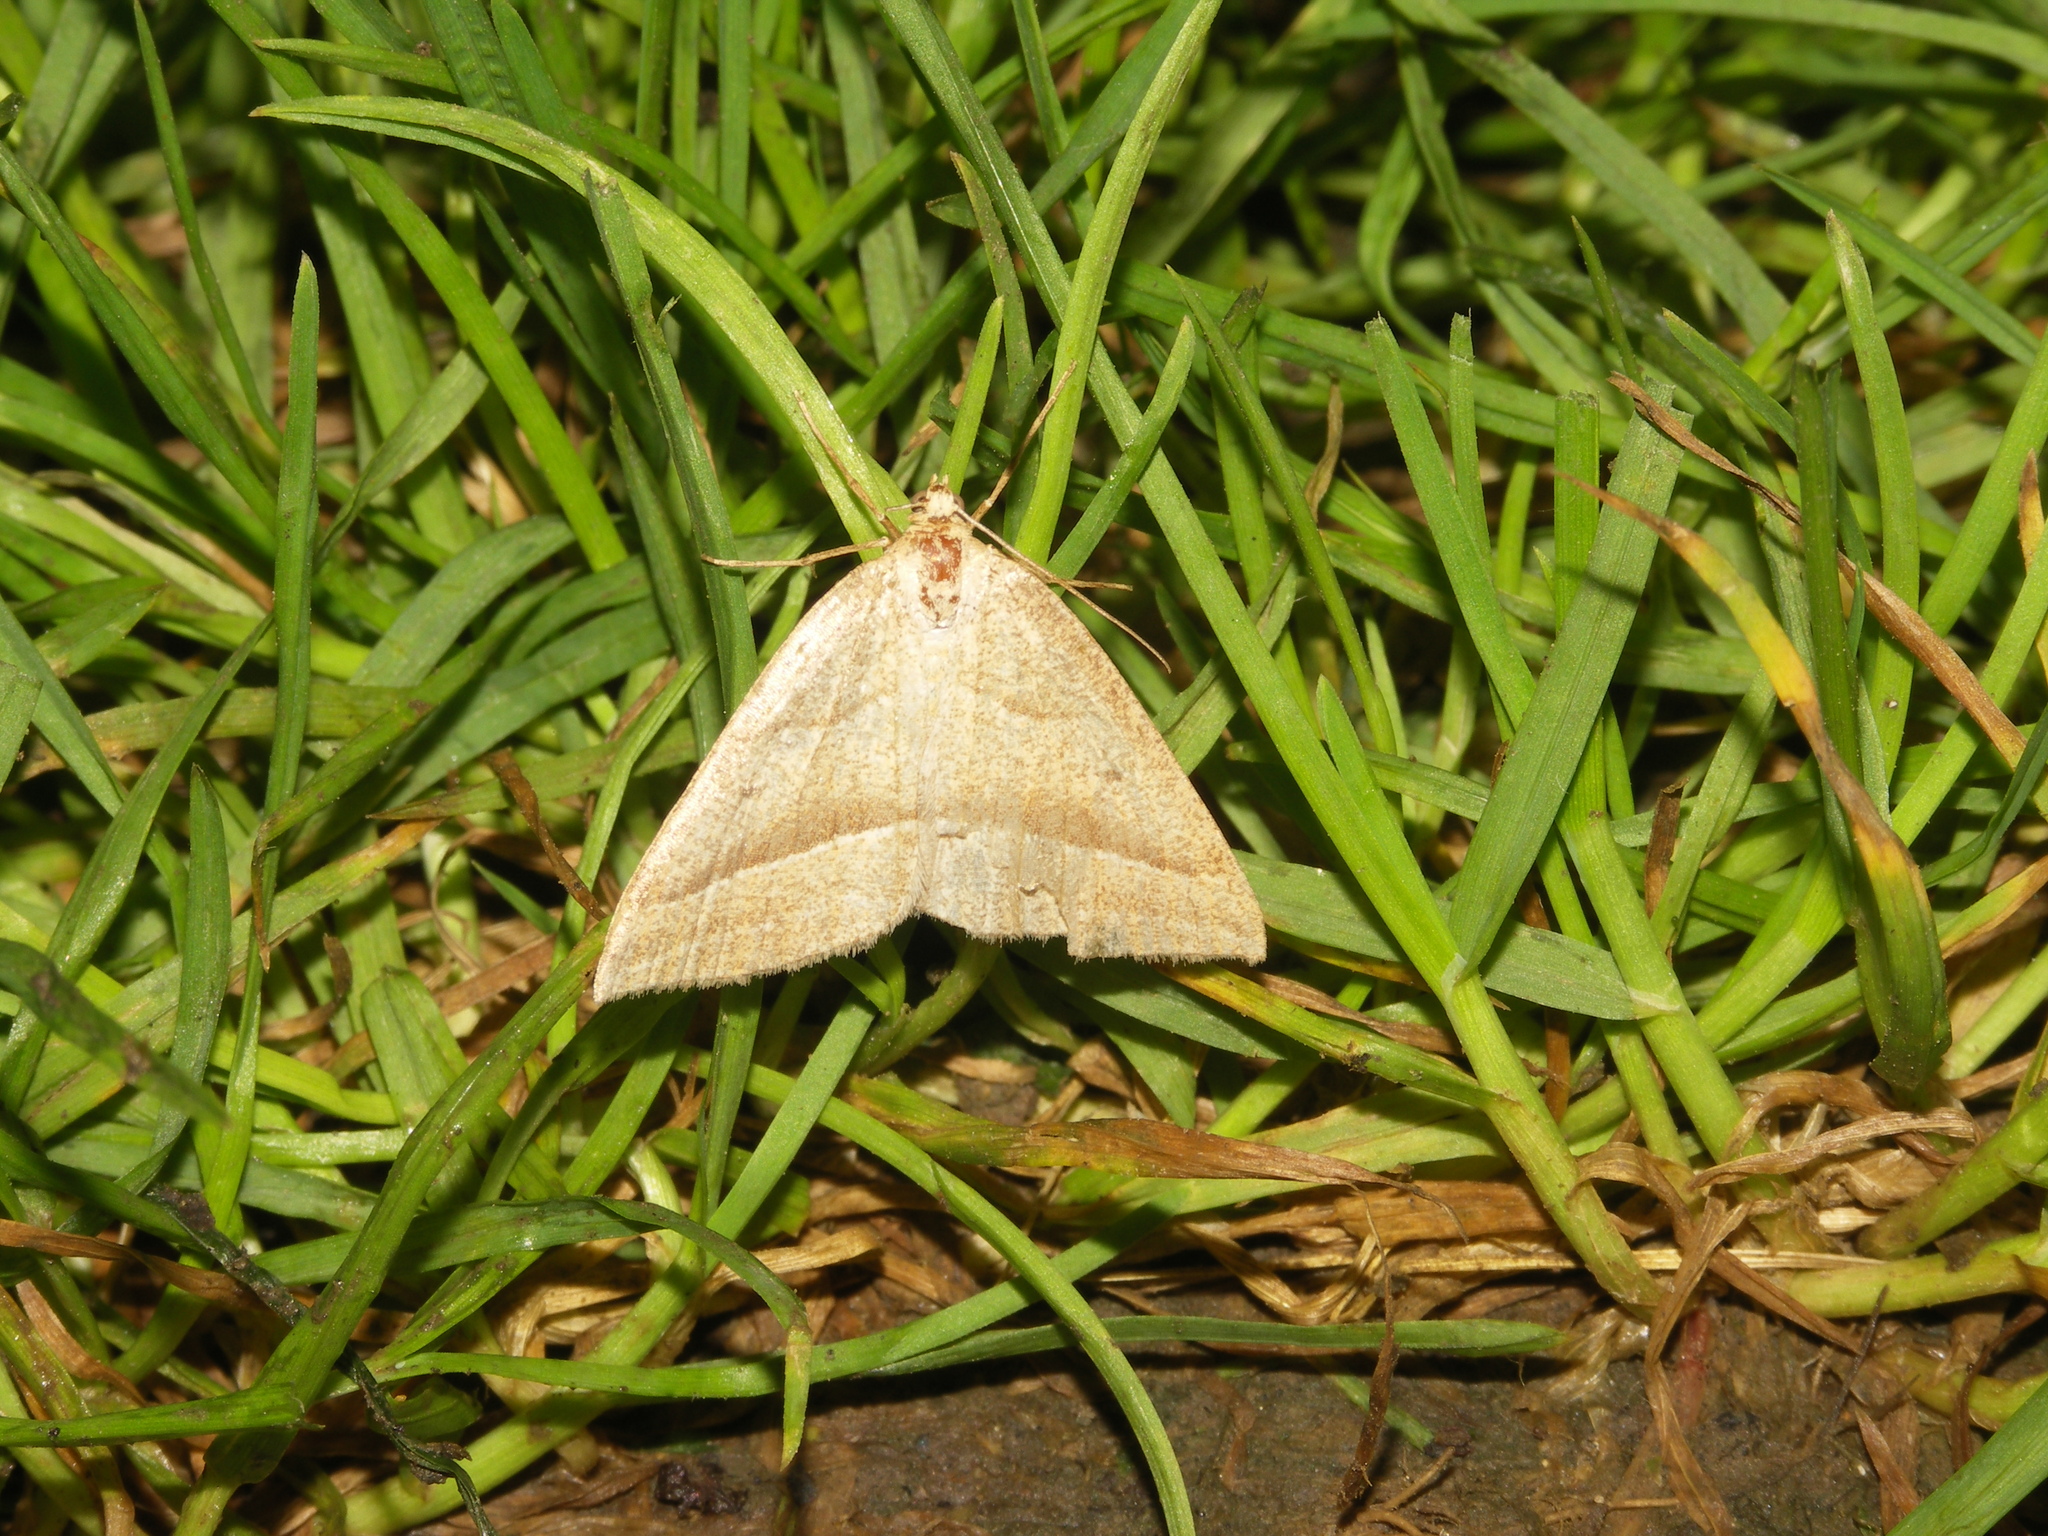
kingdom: Animalia
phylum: Arthropoda
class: Insecta
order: Lepidoptera
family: Pterophoridae
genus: Pterophorus
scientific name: Pterophorus Petrophora chlorosata
